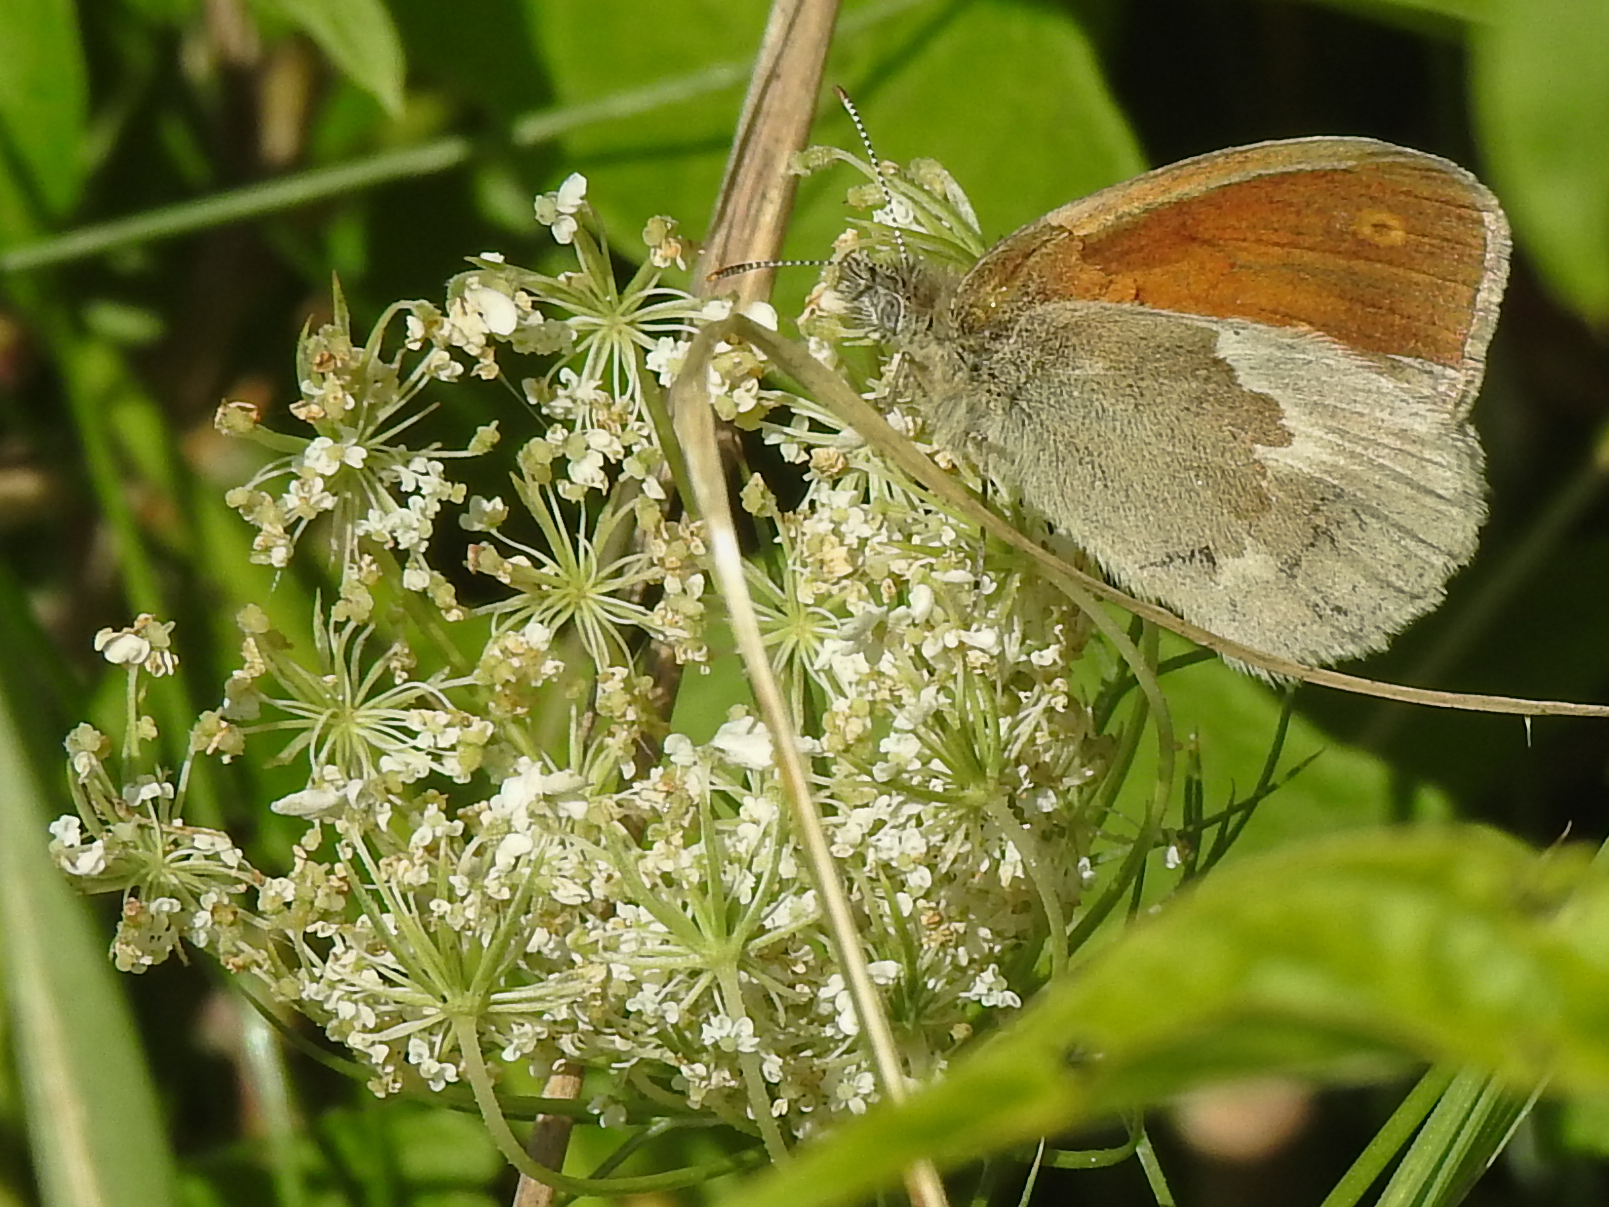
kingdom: Animalia
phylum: Arthropoda
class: Insecta
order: Lepidoptera
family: Nymphalidae
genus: Coenonympha
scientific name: Coenonympha california
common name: Common ringlet
